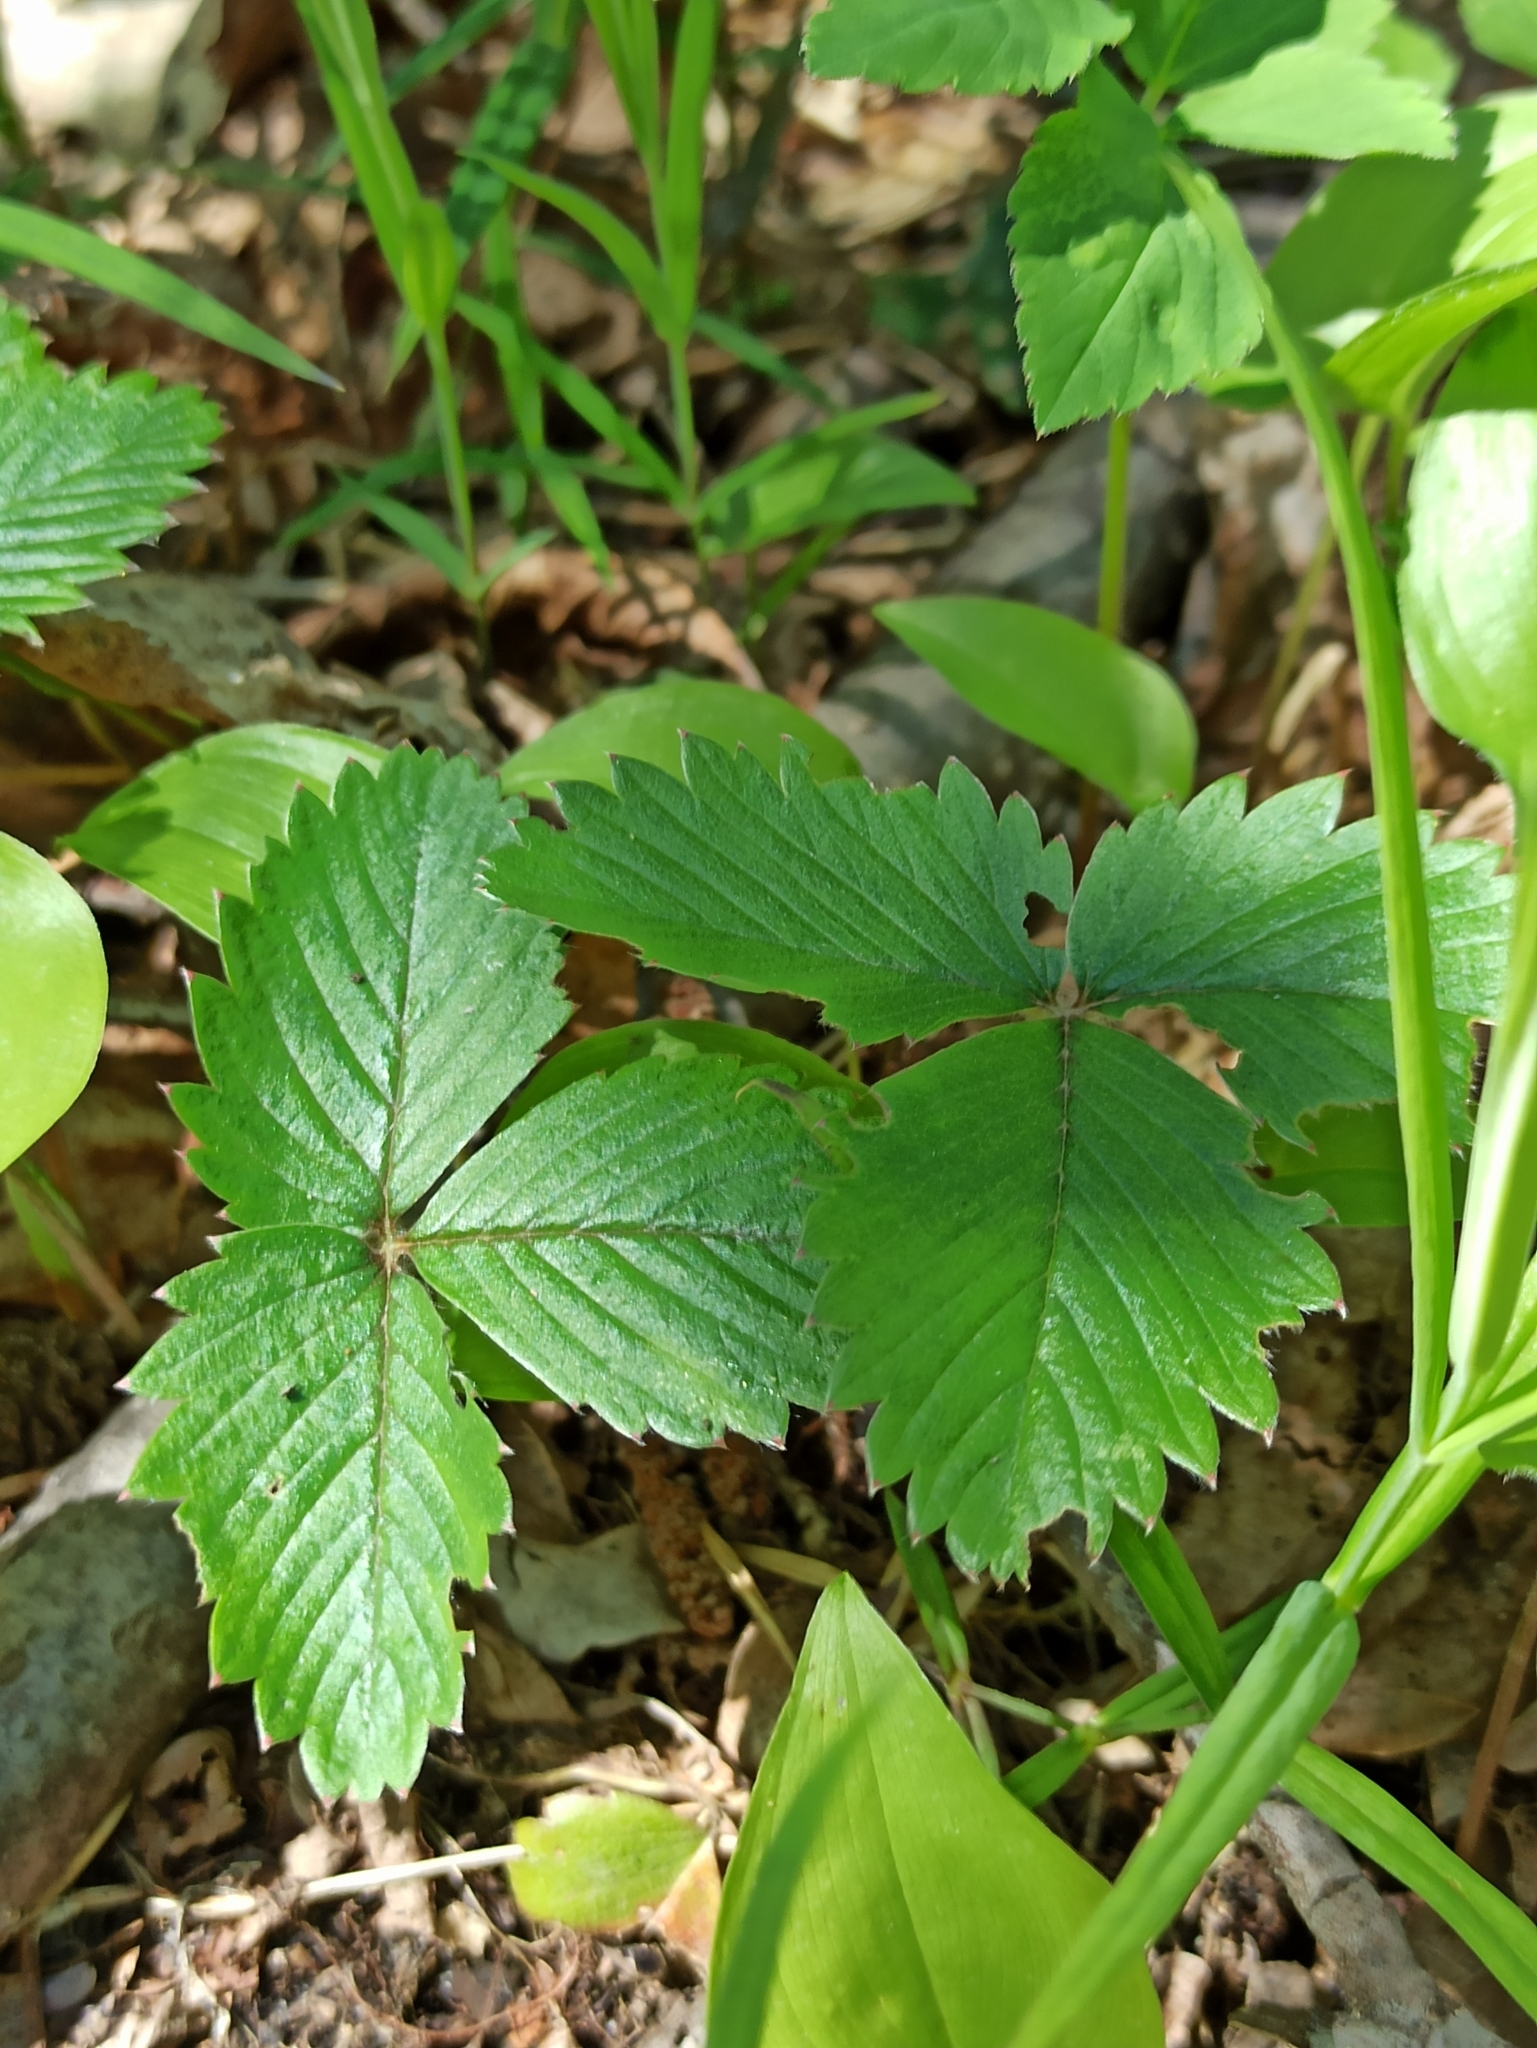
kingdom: Plantae
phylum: Tracheophyta
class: Magnoliopsida
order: Rosales
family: Rosaceae
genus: Fragaria
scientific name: Fragaria vesca
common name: Wild strawberry
